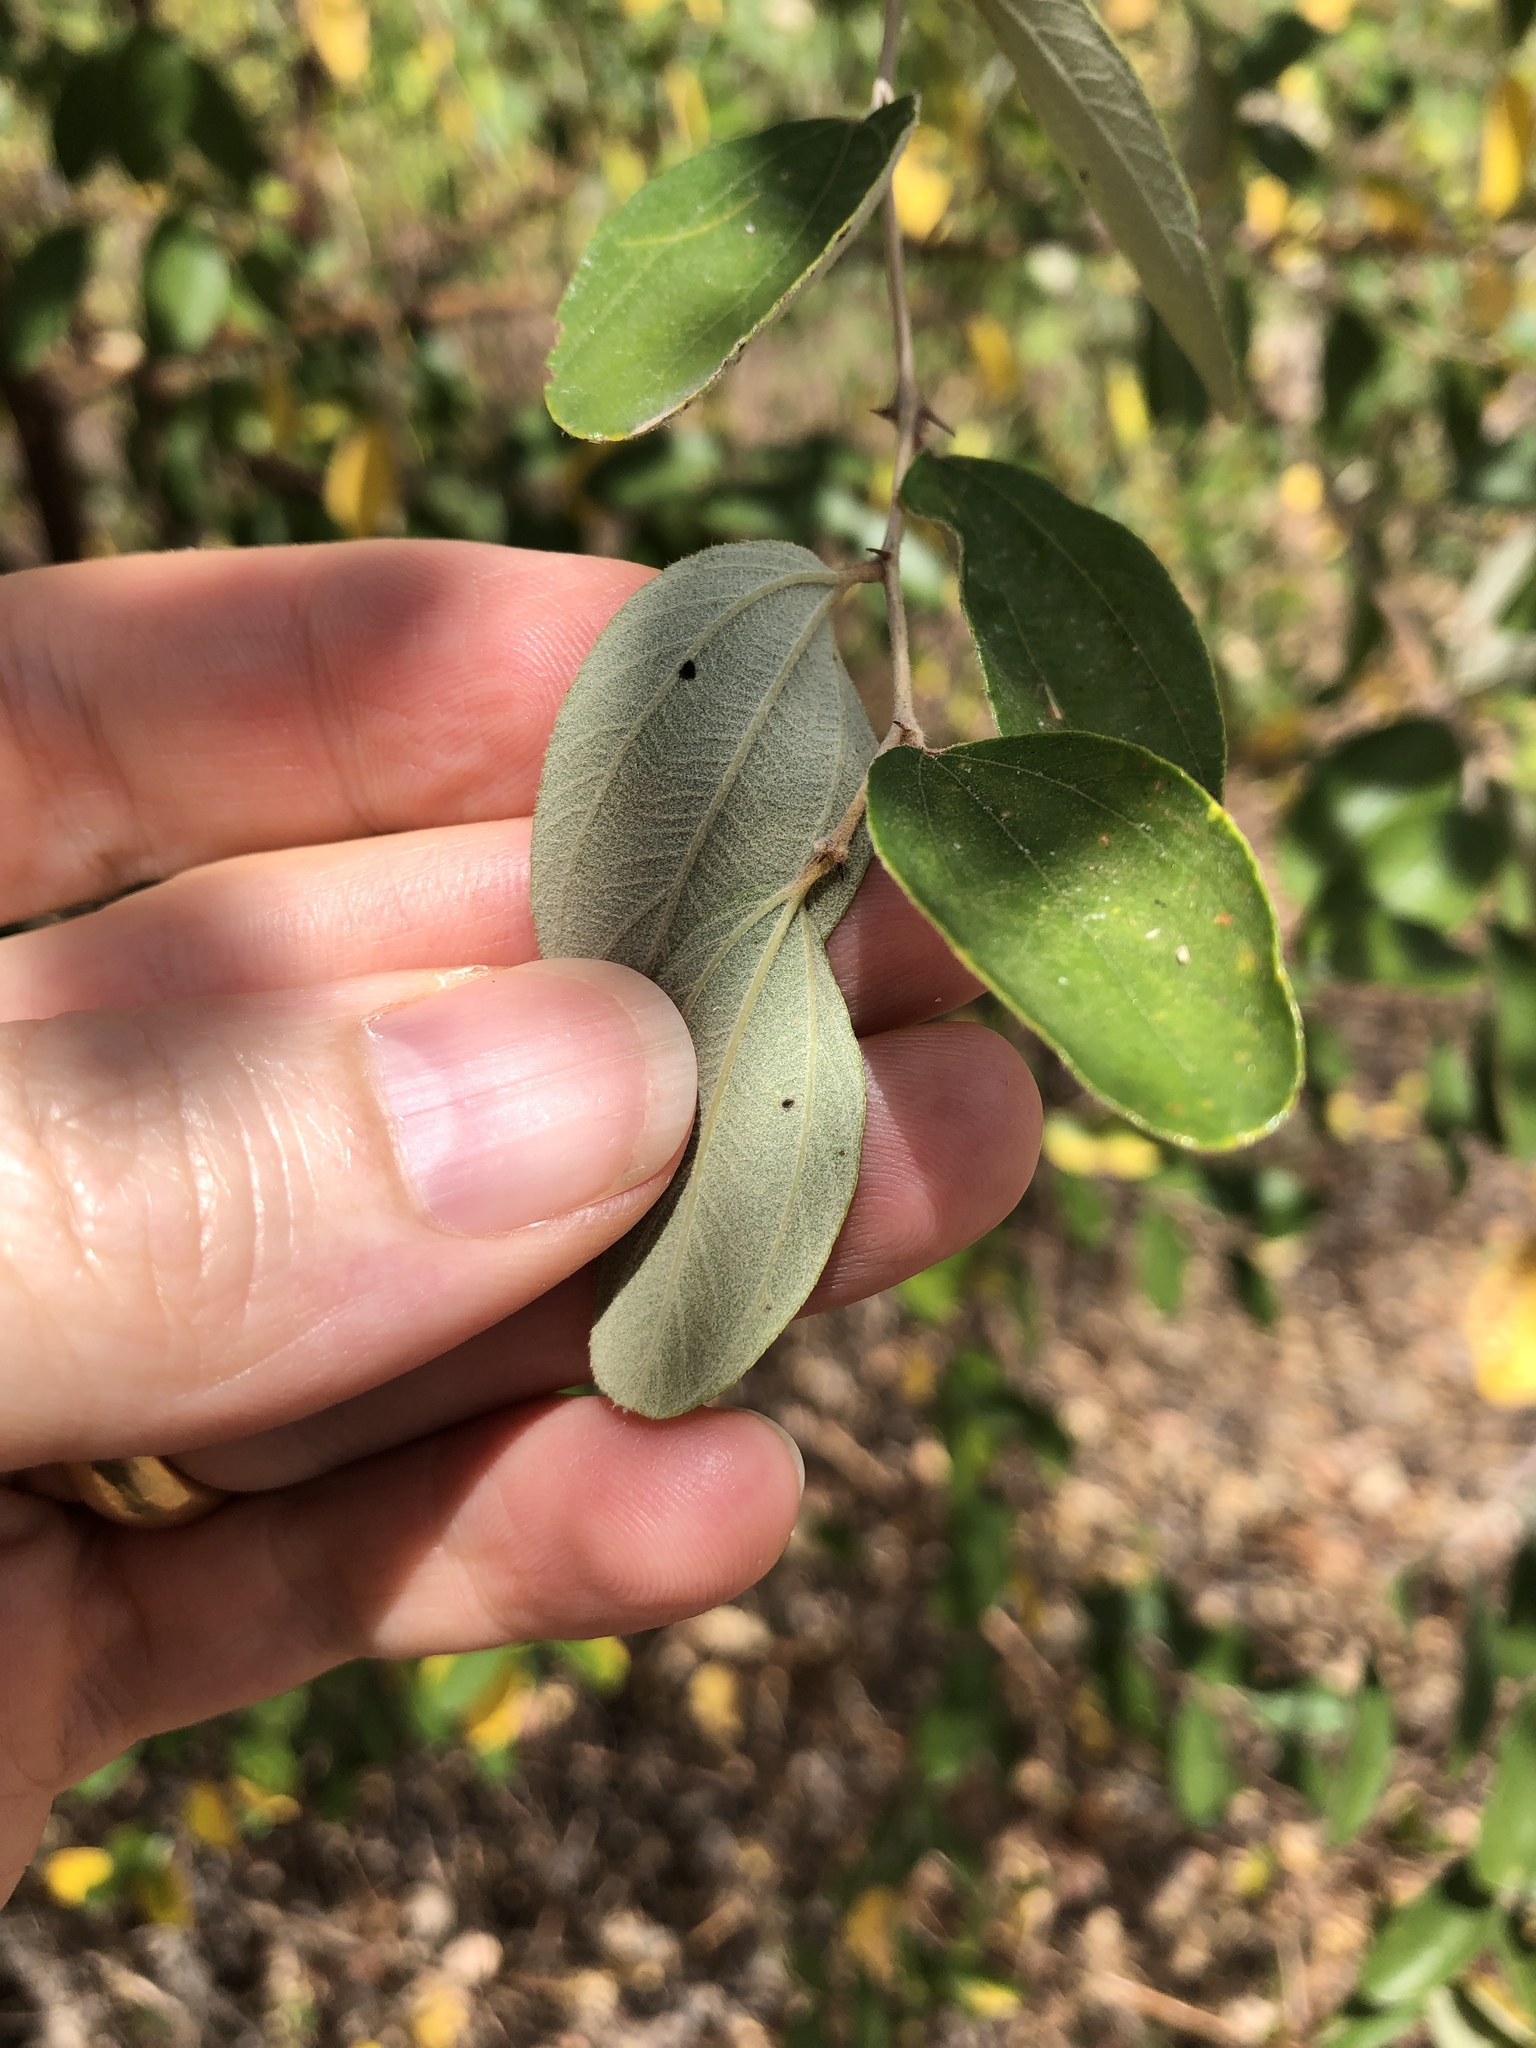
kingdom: Plantae
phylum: Tracheophyta
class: Magnoliopsida
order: Rosales
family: Rhamnaceae
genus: Ziziphus
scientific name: Ziziphus mauritiana
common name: Indian jujube
